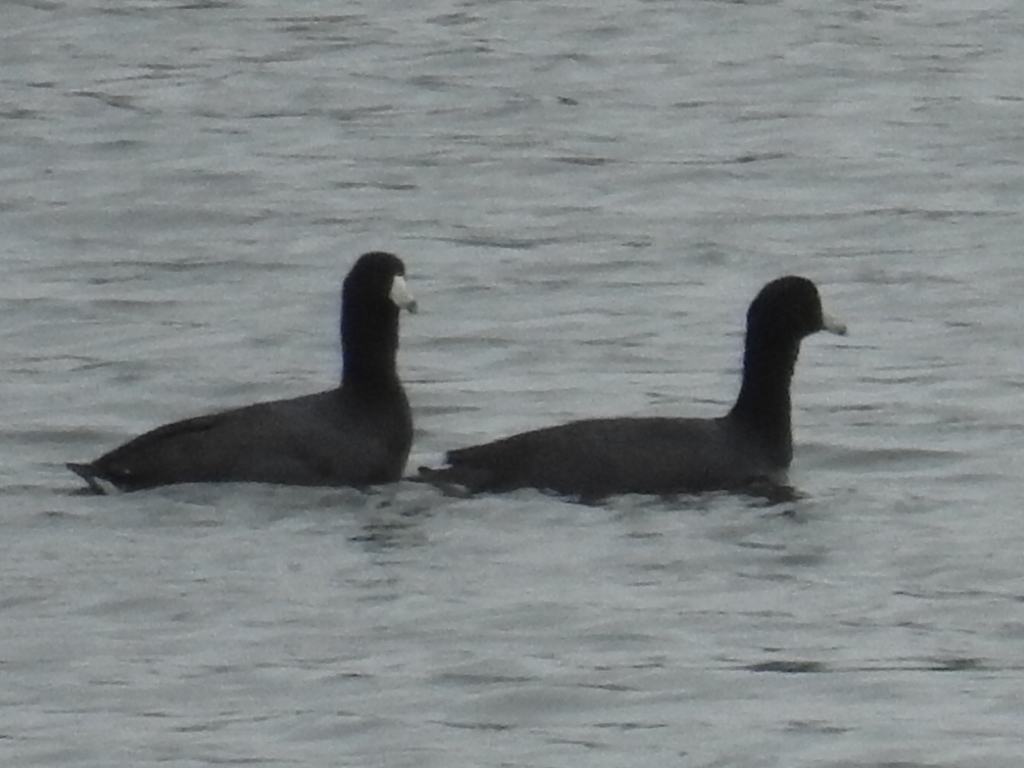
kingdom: Animalia
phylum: Chordata
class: Aves
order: Gruiformes
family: Rallidae
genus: Fulica
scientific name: Fulica americana
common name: American coot
